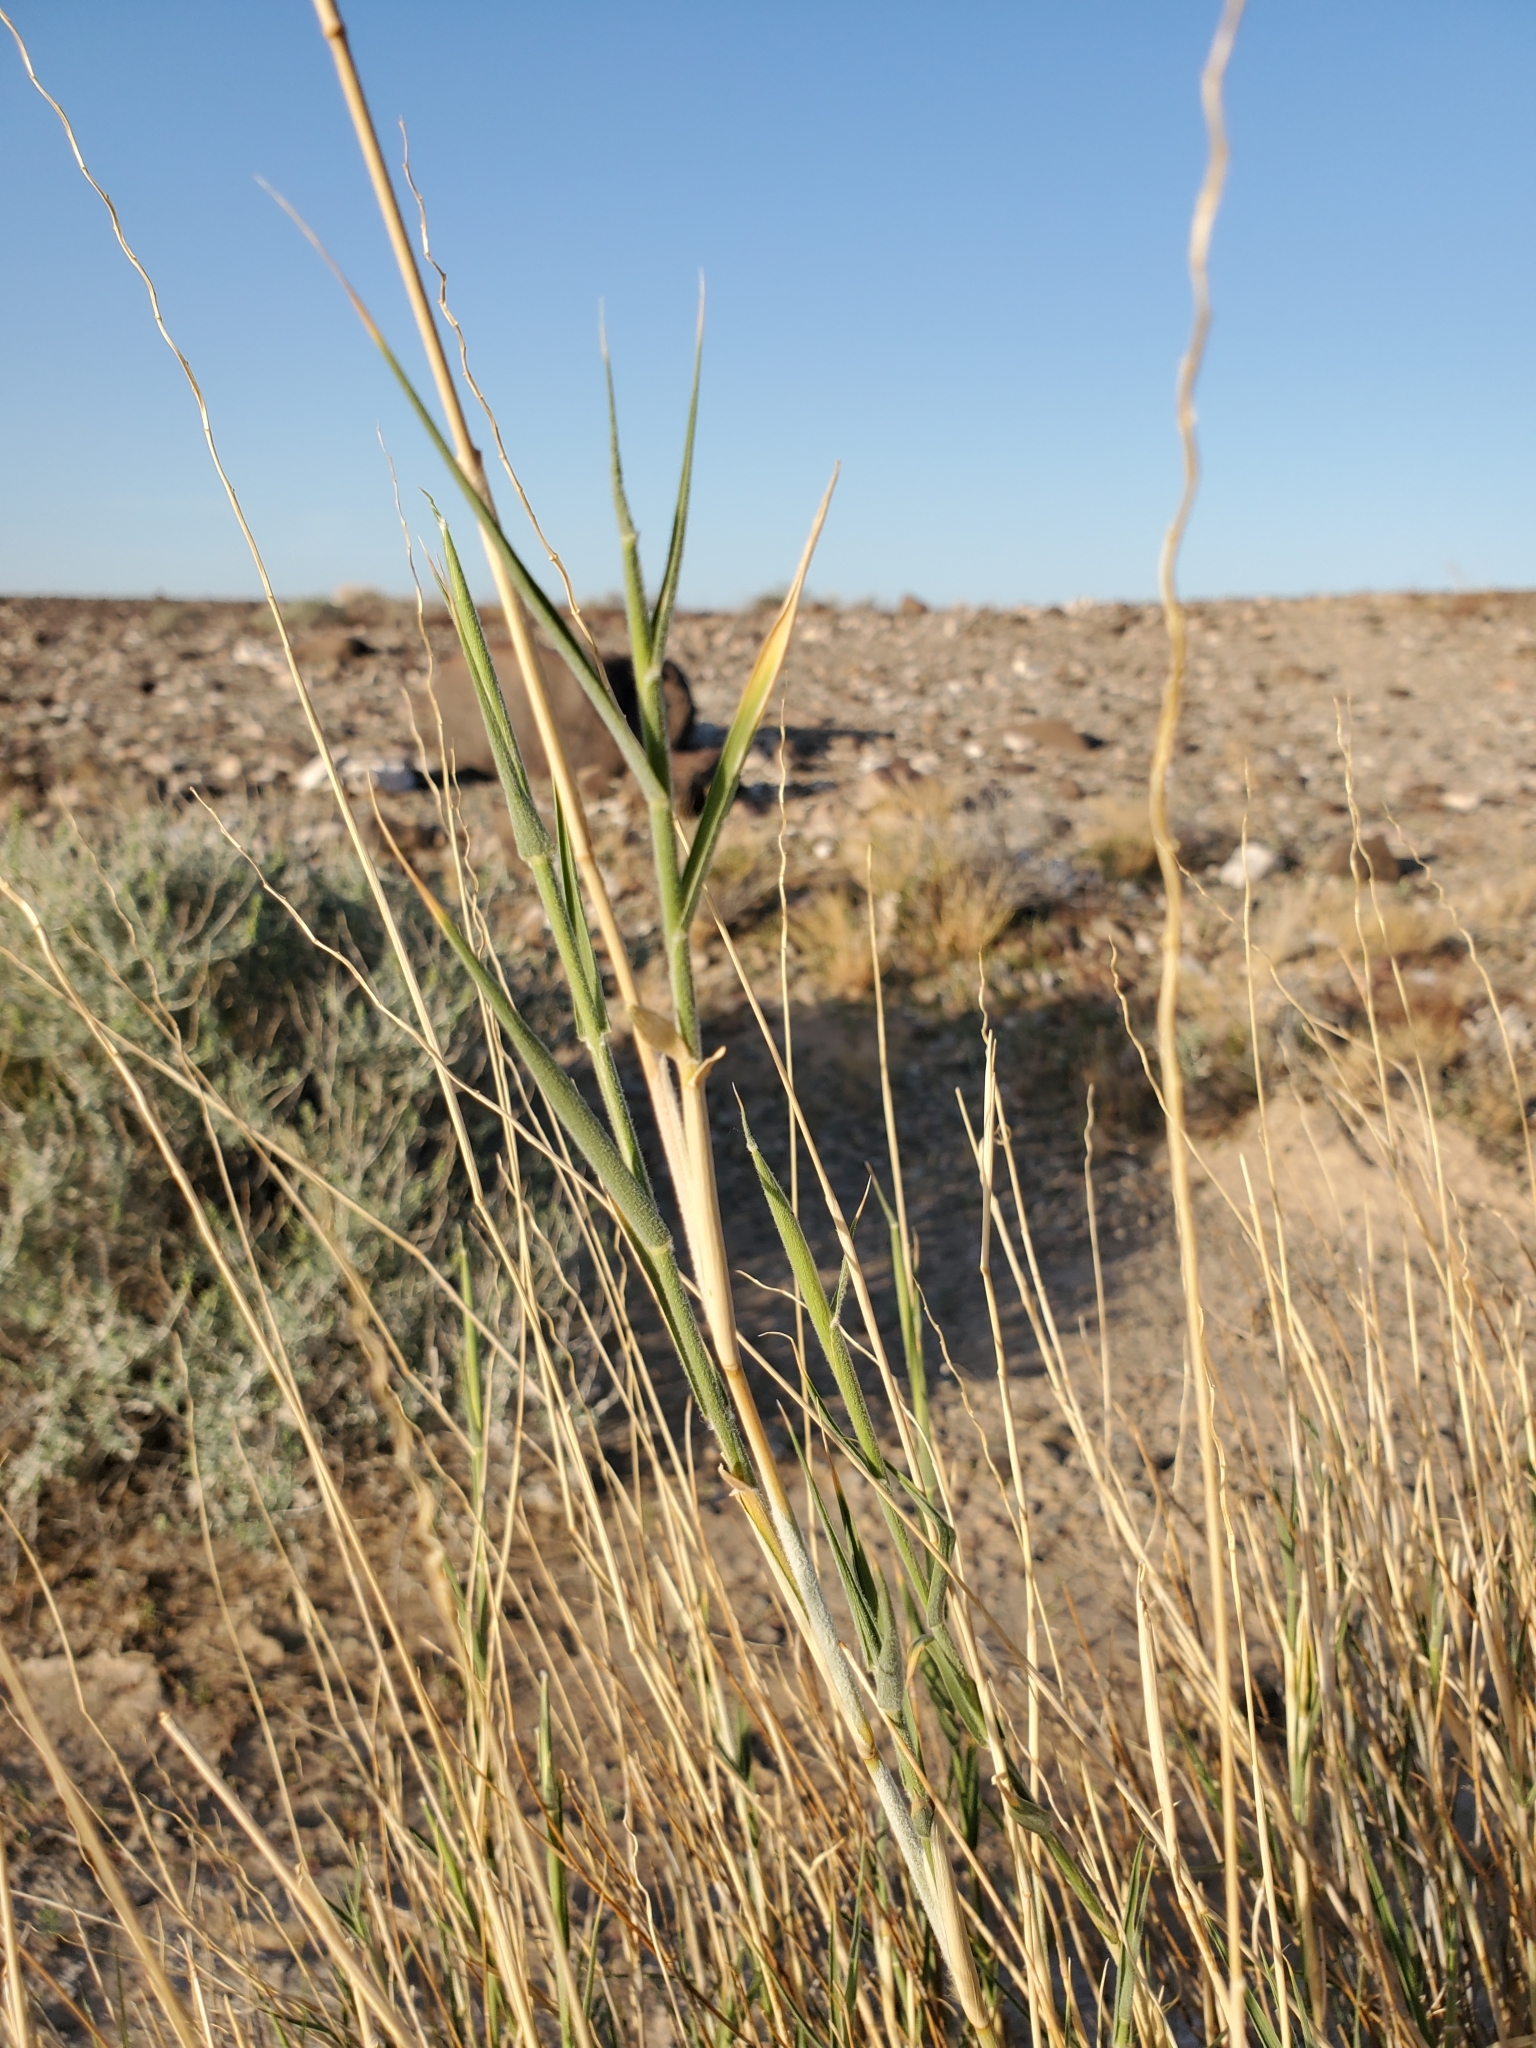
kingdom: Plantae
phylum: Tracheophyta
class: Liliopsida
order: Poales
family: Poaceae
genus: Hilaria
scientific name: Hilaria rigida
